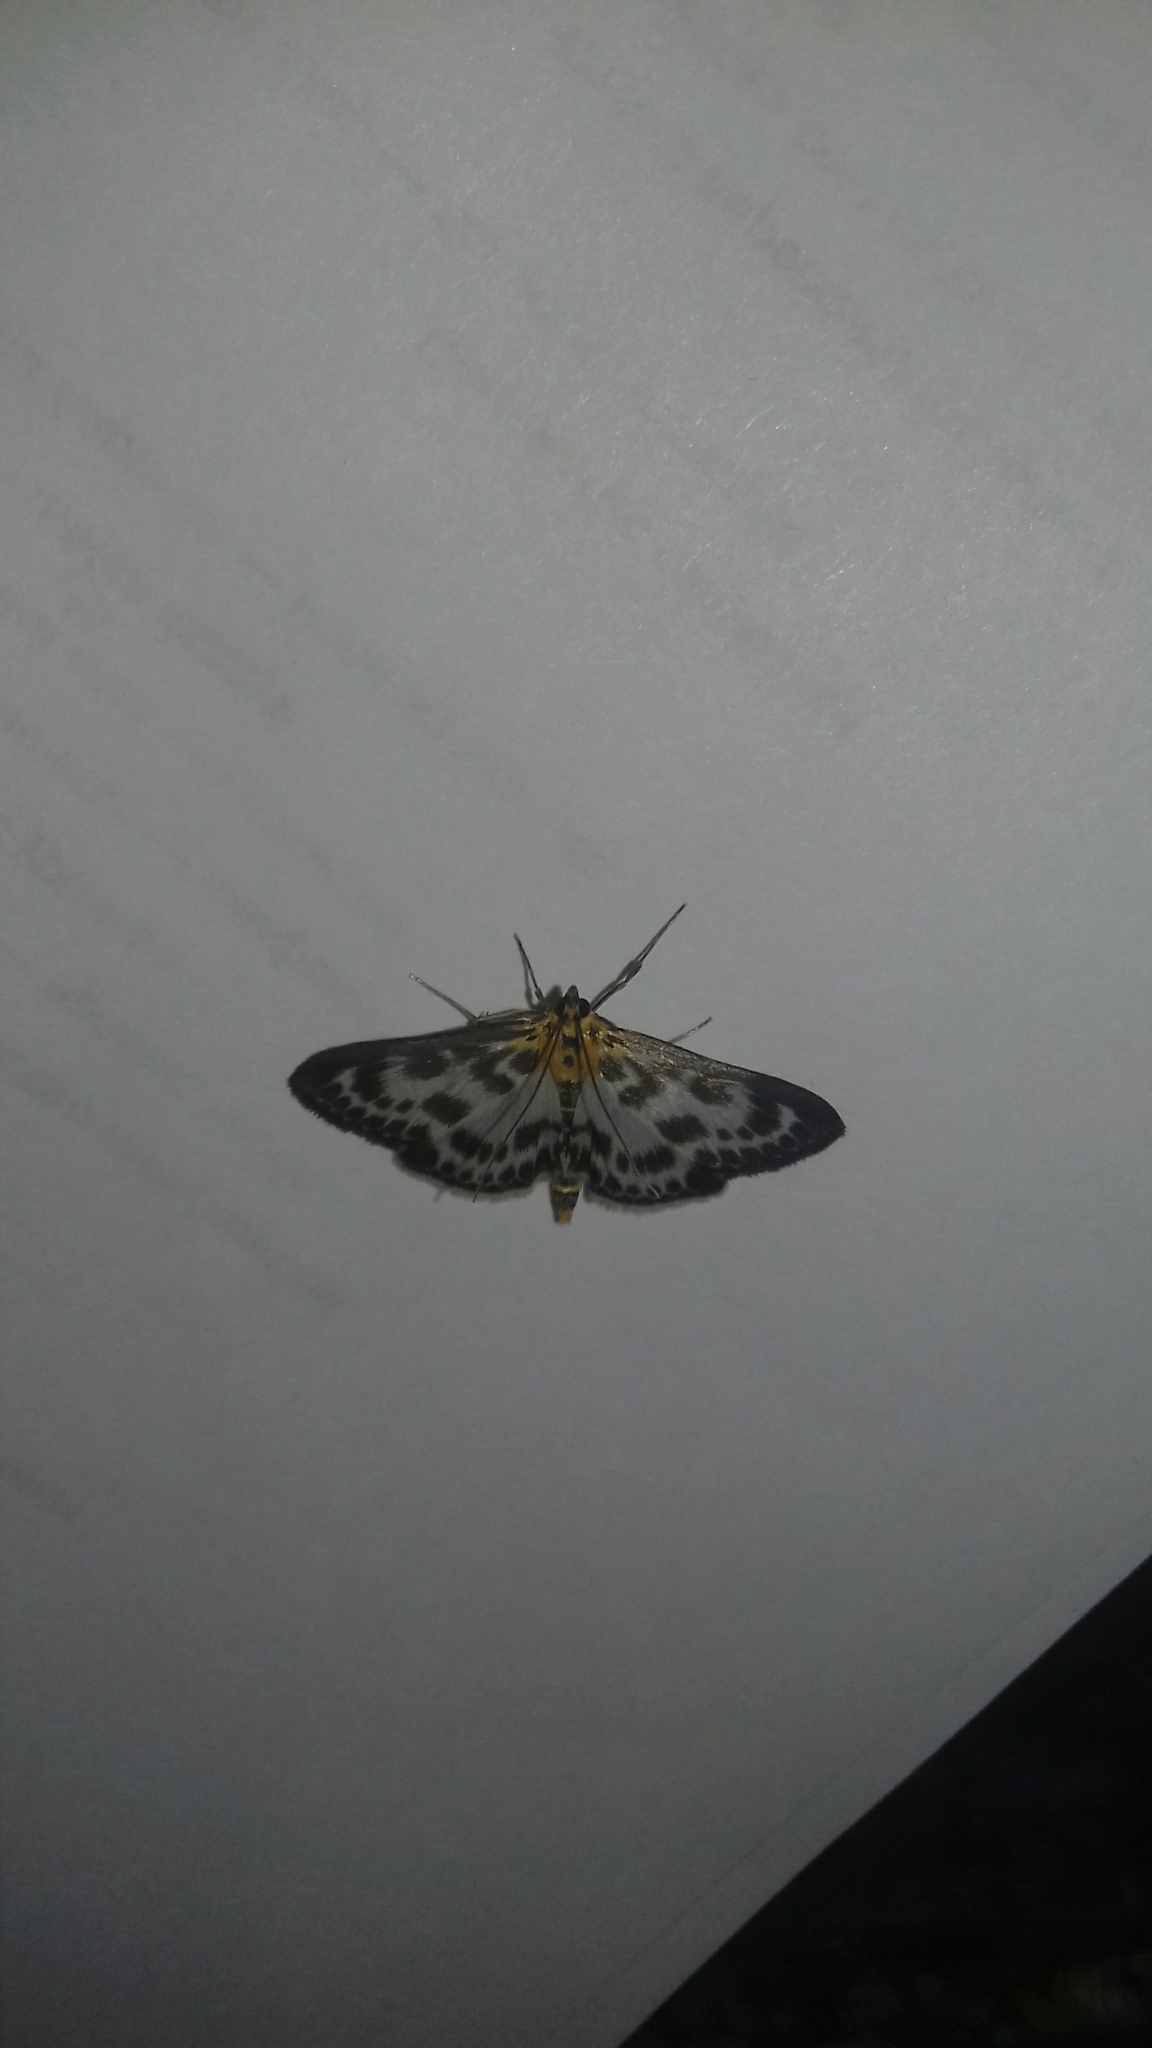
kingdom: Animalia
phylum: Arthropoda
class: Insecta
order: Lepidoptera
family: Crambidae
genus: Anania
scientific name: Anania hortulata
